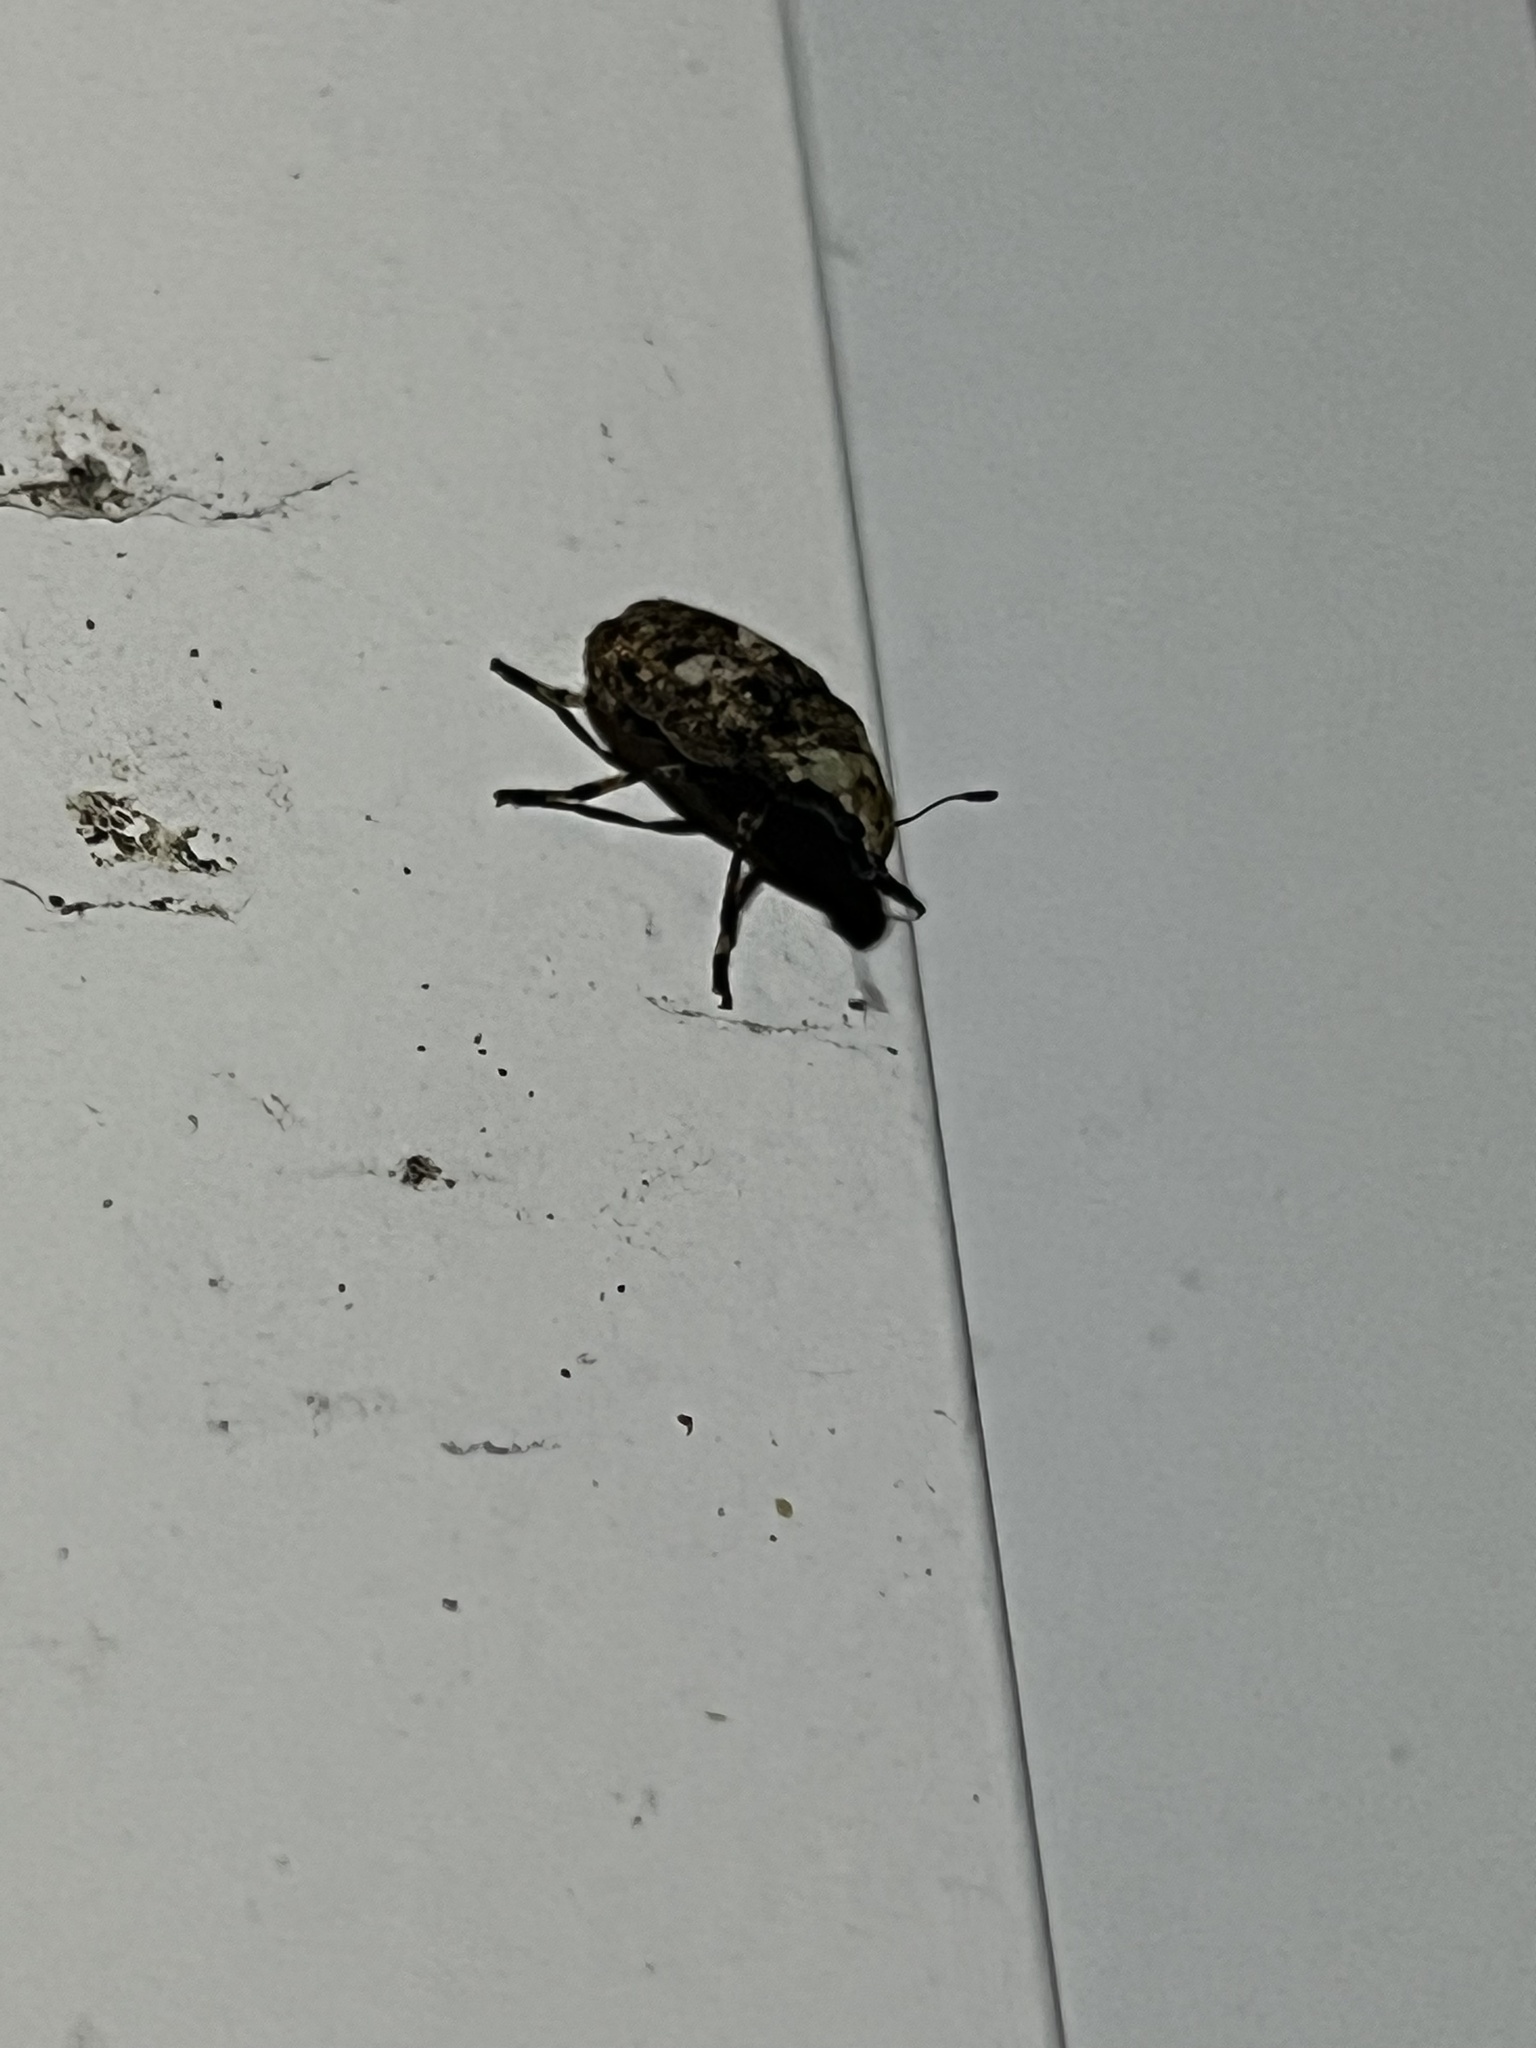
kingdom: Animalia
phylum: Arthropoda
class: Insecta
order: Coleoptera
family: Anthribidae
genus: Euparius
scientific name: Euparius marmoreus
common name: Marbled fungus weevil
